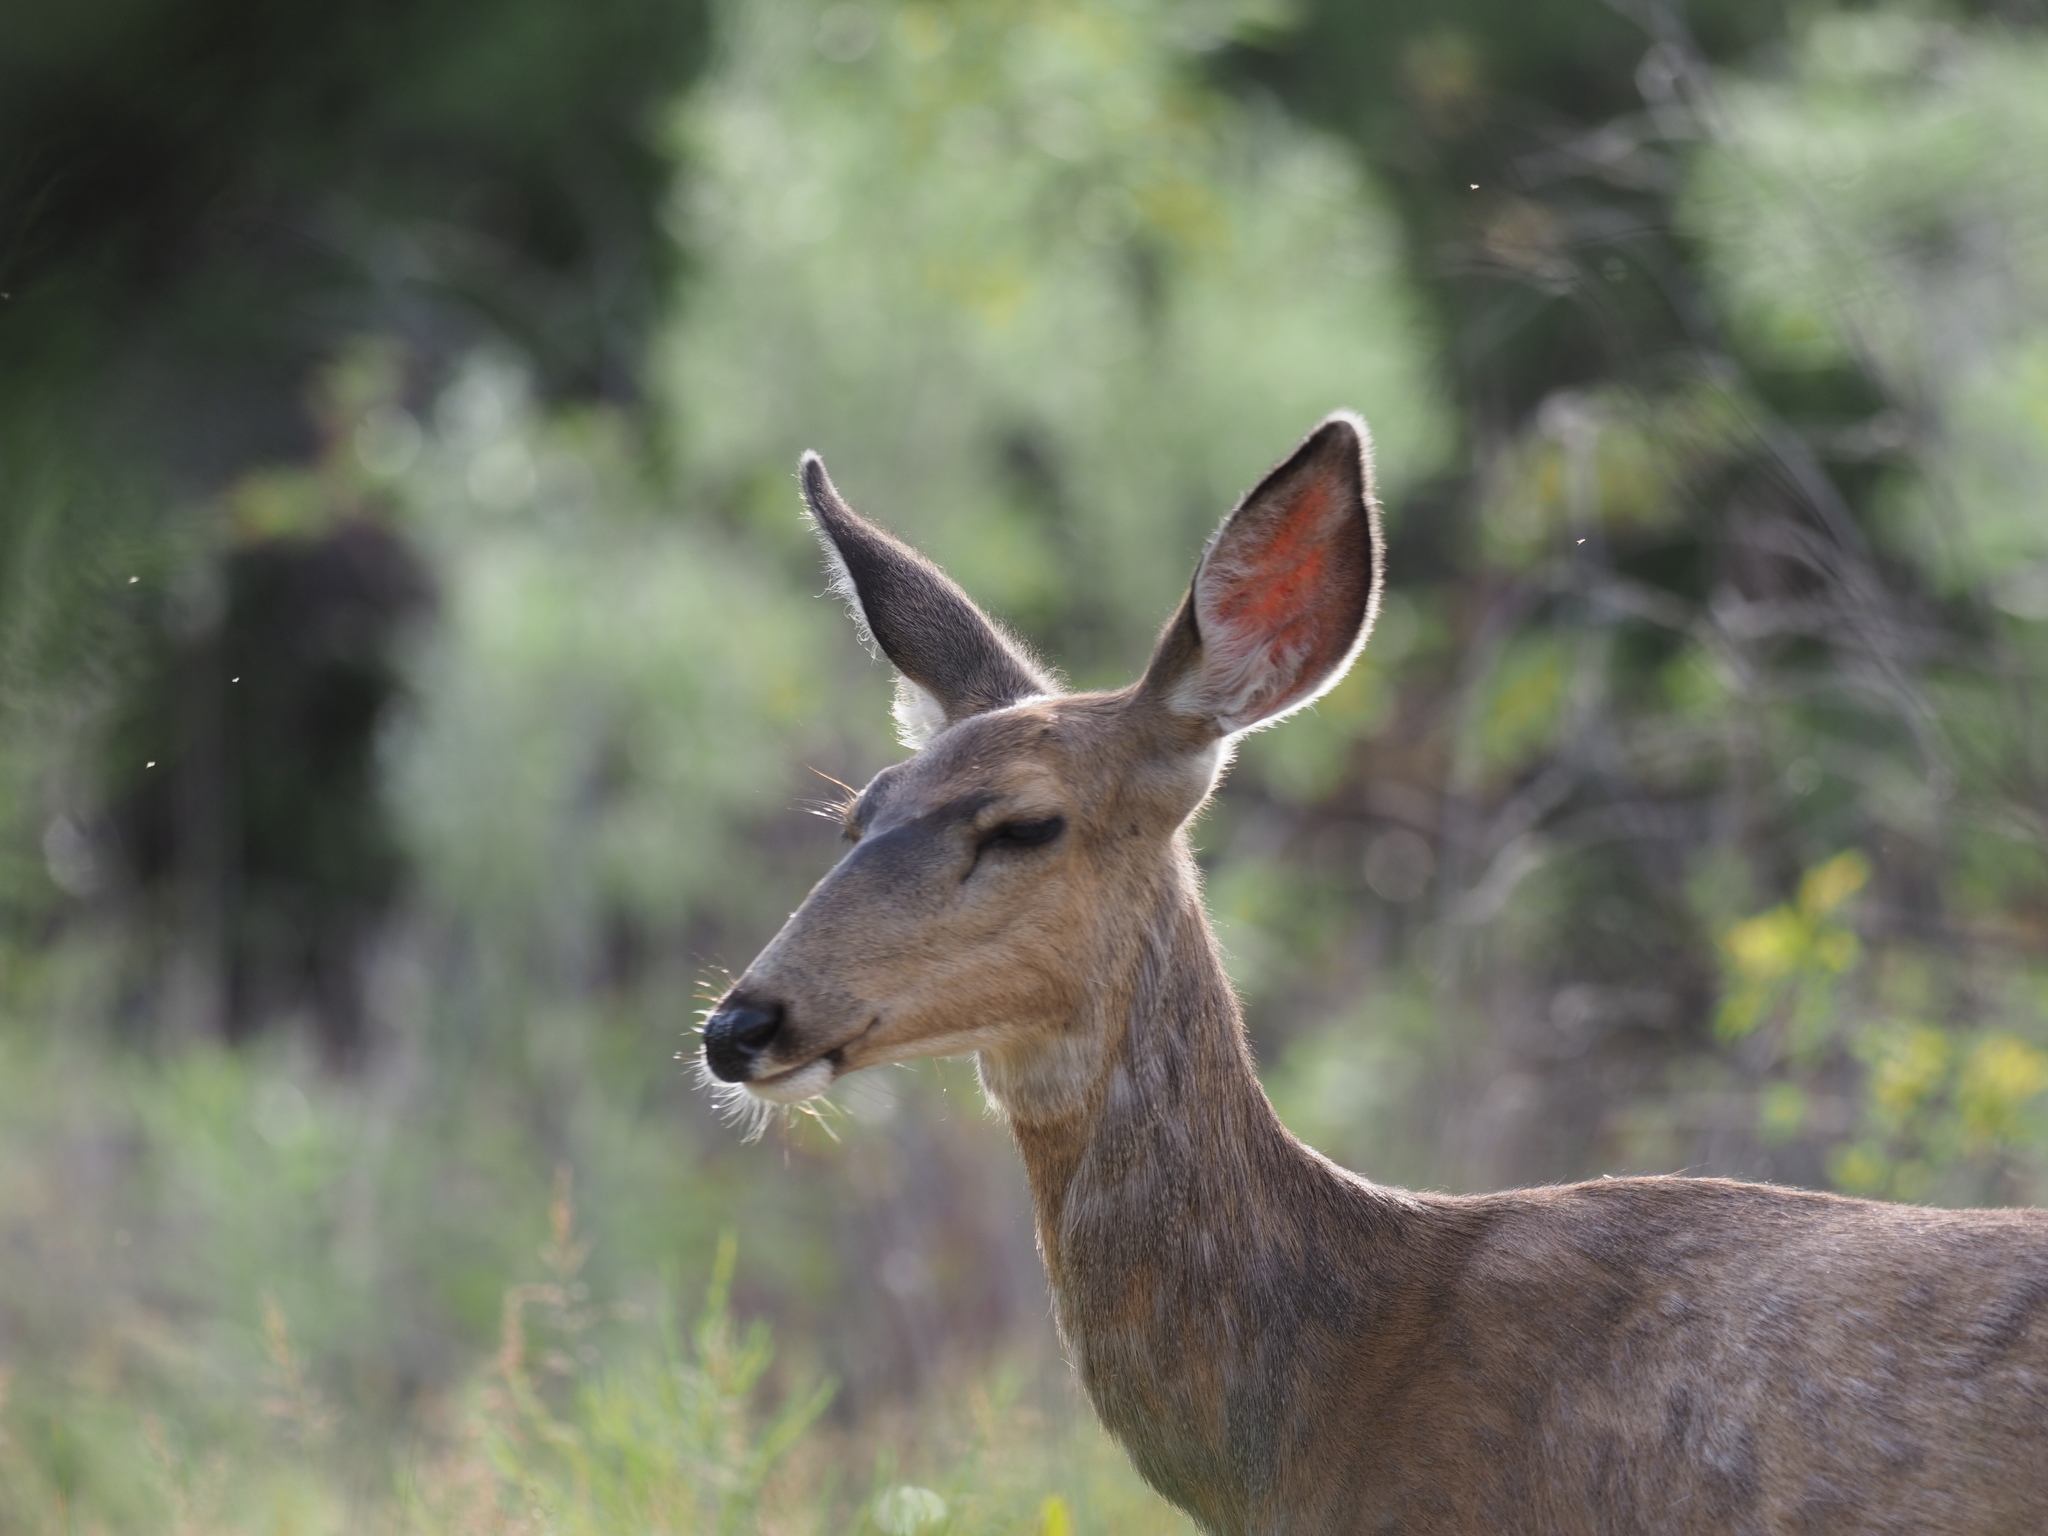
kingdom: Animalia
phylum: Chordata
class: Mammalia
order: Artiodactyla
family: Cervidae
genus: Odocoileus
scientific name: Odocoileus hemionus
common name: Mule deer
